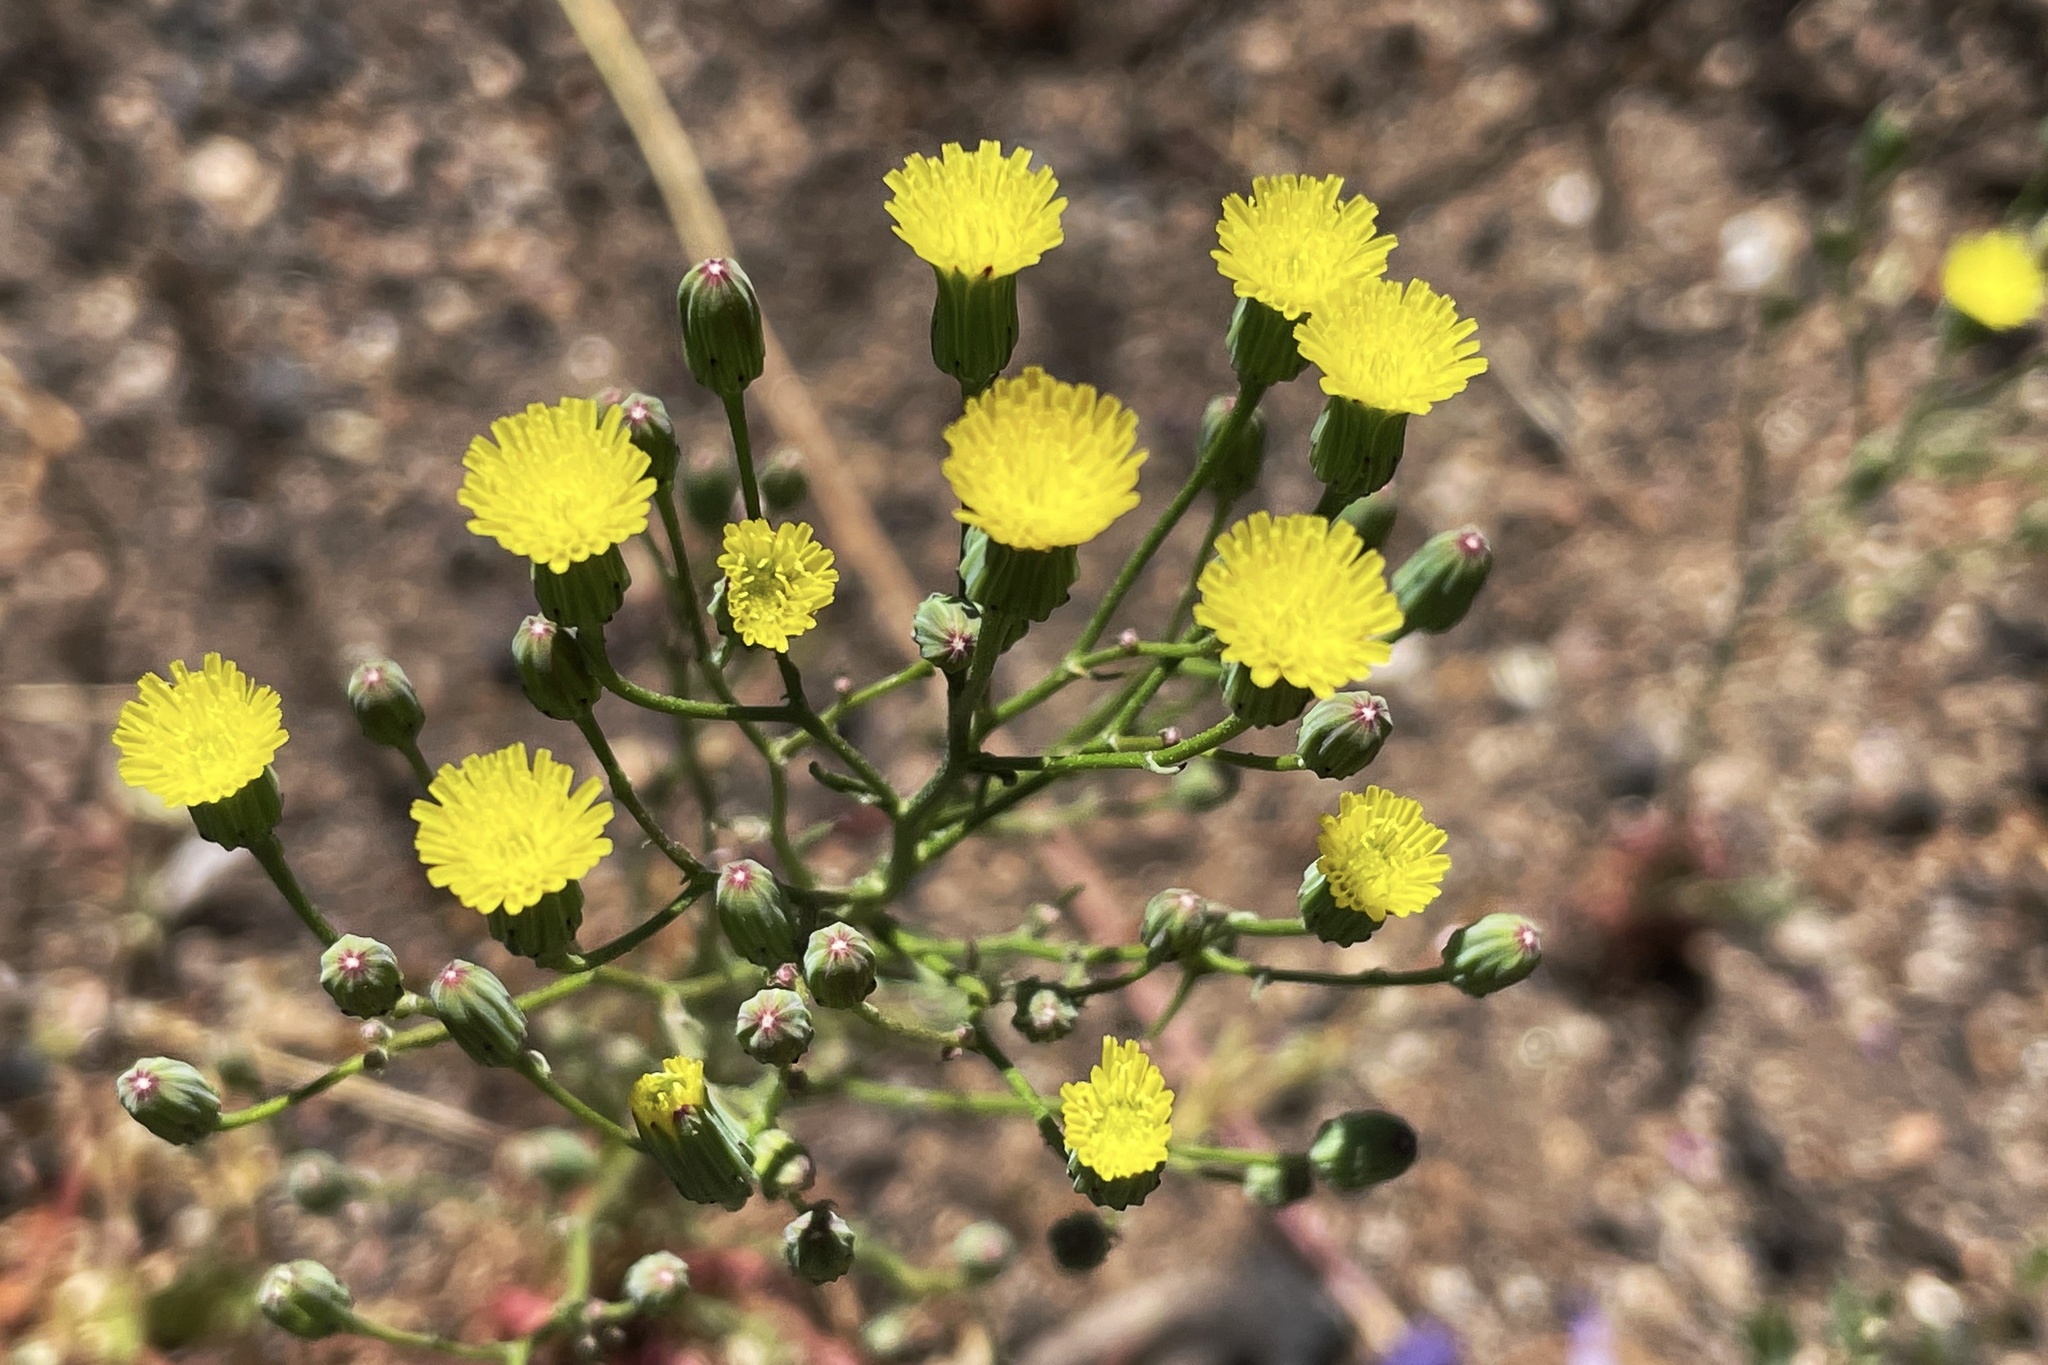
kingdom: Plantae
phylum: Tracheophyta
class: Magnoliopsida
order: Asterales
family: Asteraceae
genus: Malacothrix
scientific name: Malacothrix clevelandii
